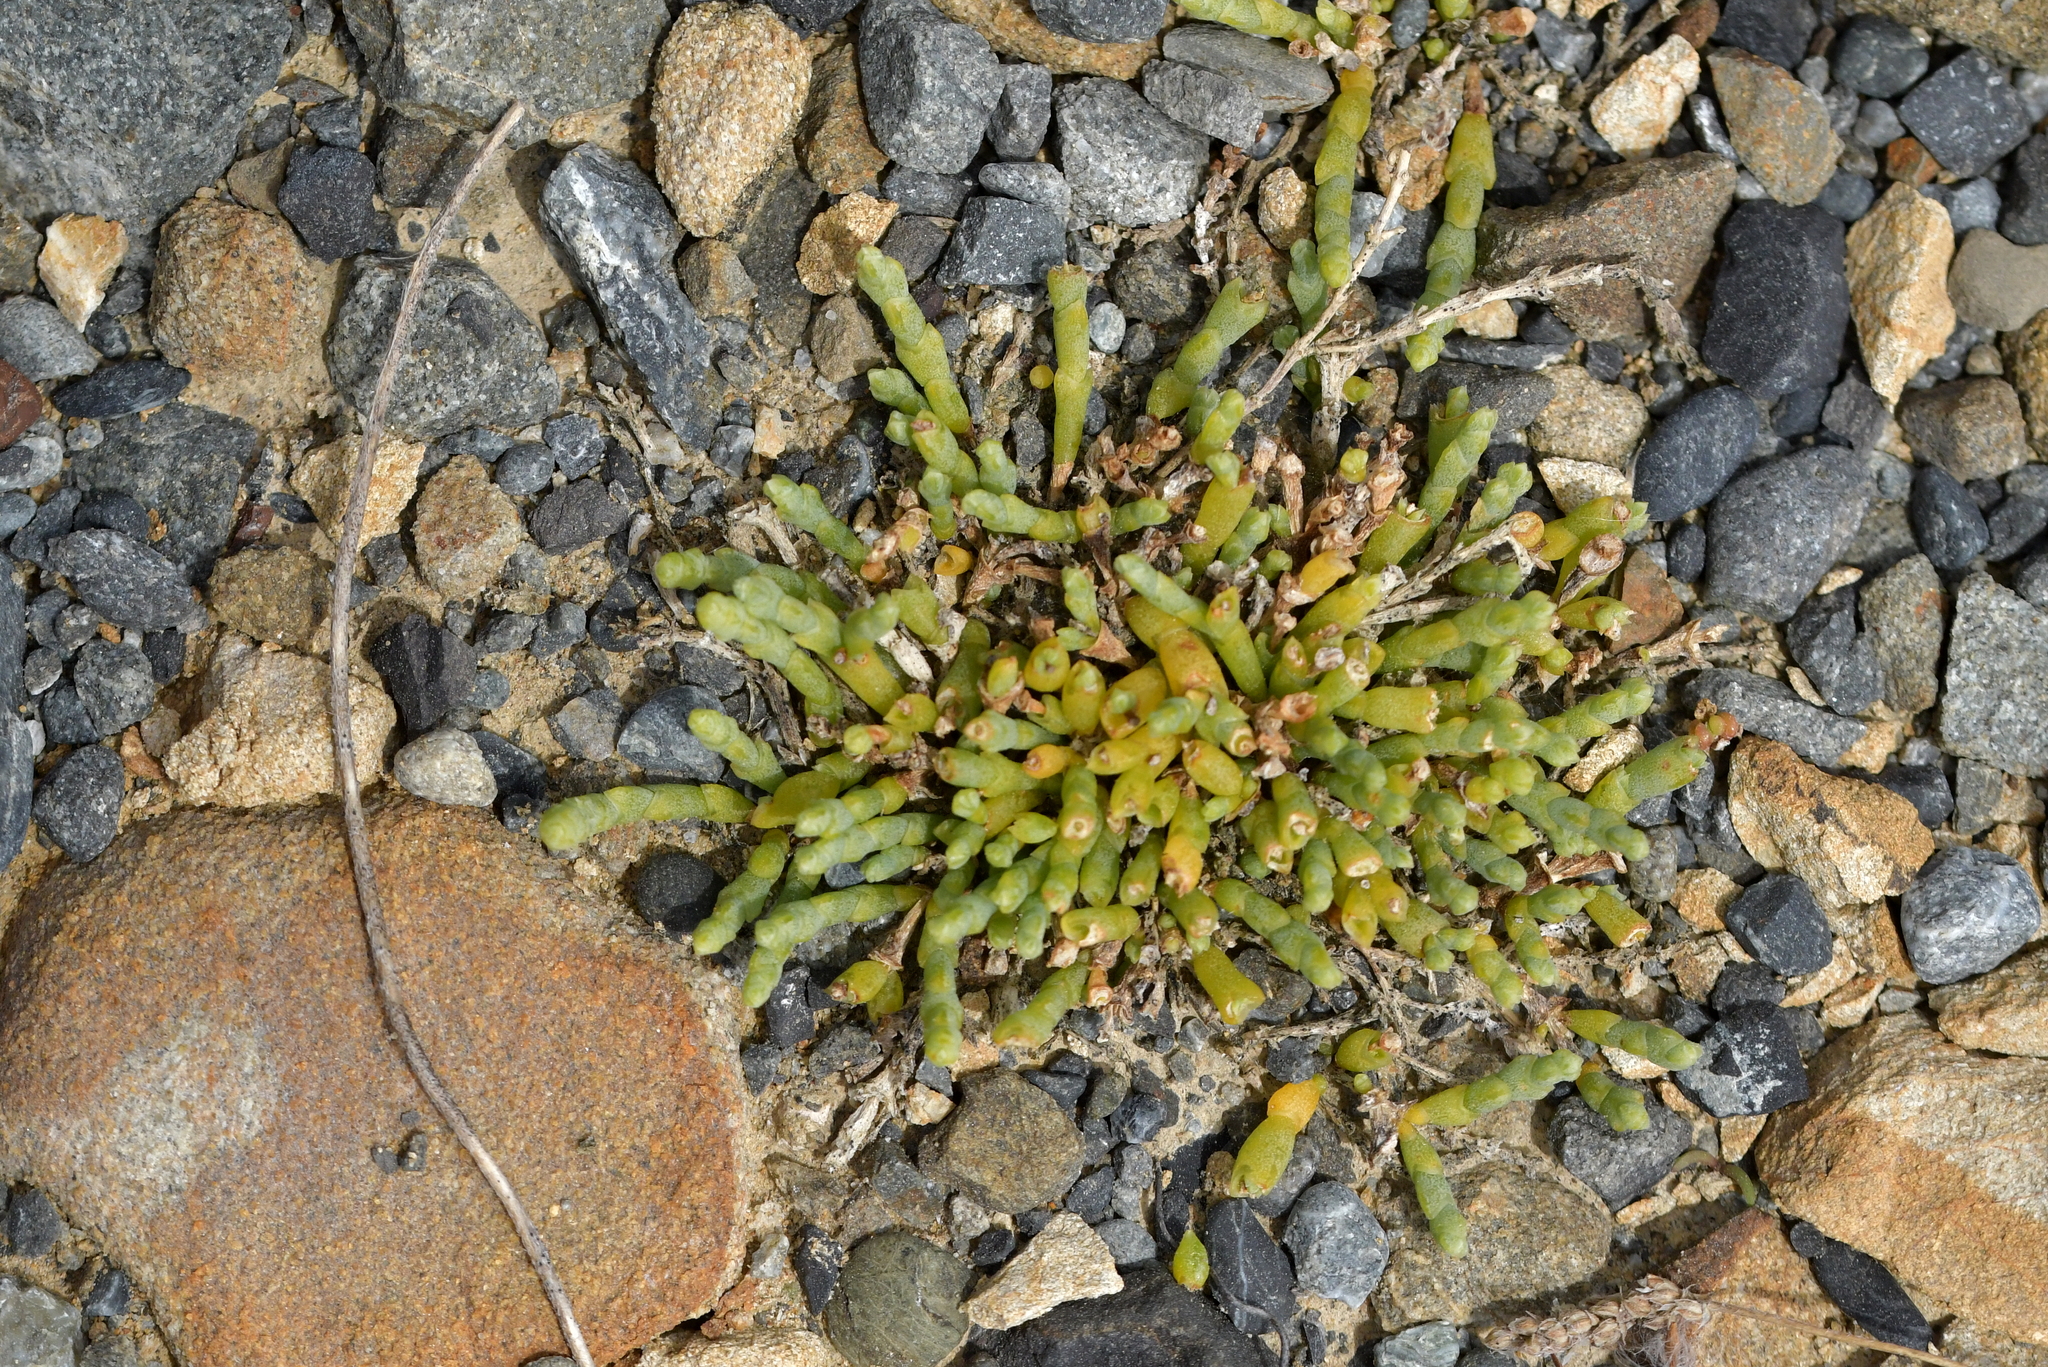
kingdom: Plantae
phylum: Tracheophyta
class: Magnoliopsida
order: Caryophyllales
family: Amaranthaceae
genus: Salicornia
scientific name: Salicornia quinqueflora
